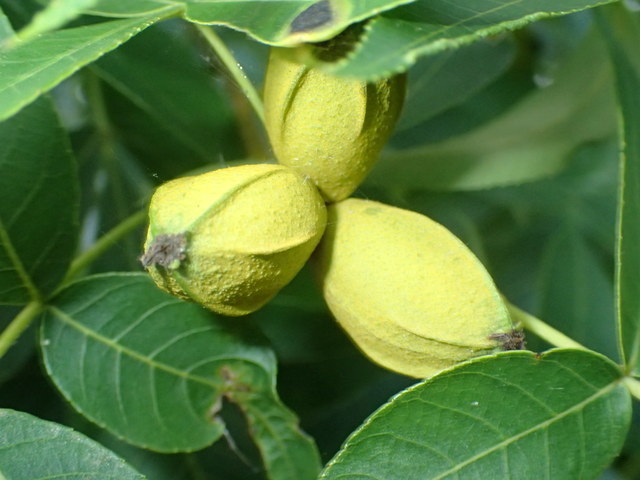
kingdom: Plantae
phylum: Tracheophyta
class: Magnoliopsida
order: Fagales
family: Juglandaceae
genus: Carya
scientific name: Carya cordiformis
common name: Bitternut hickory
